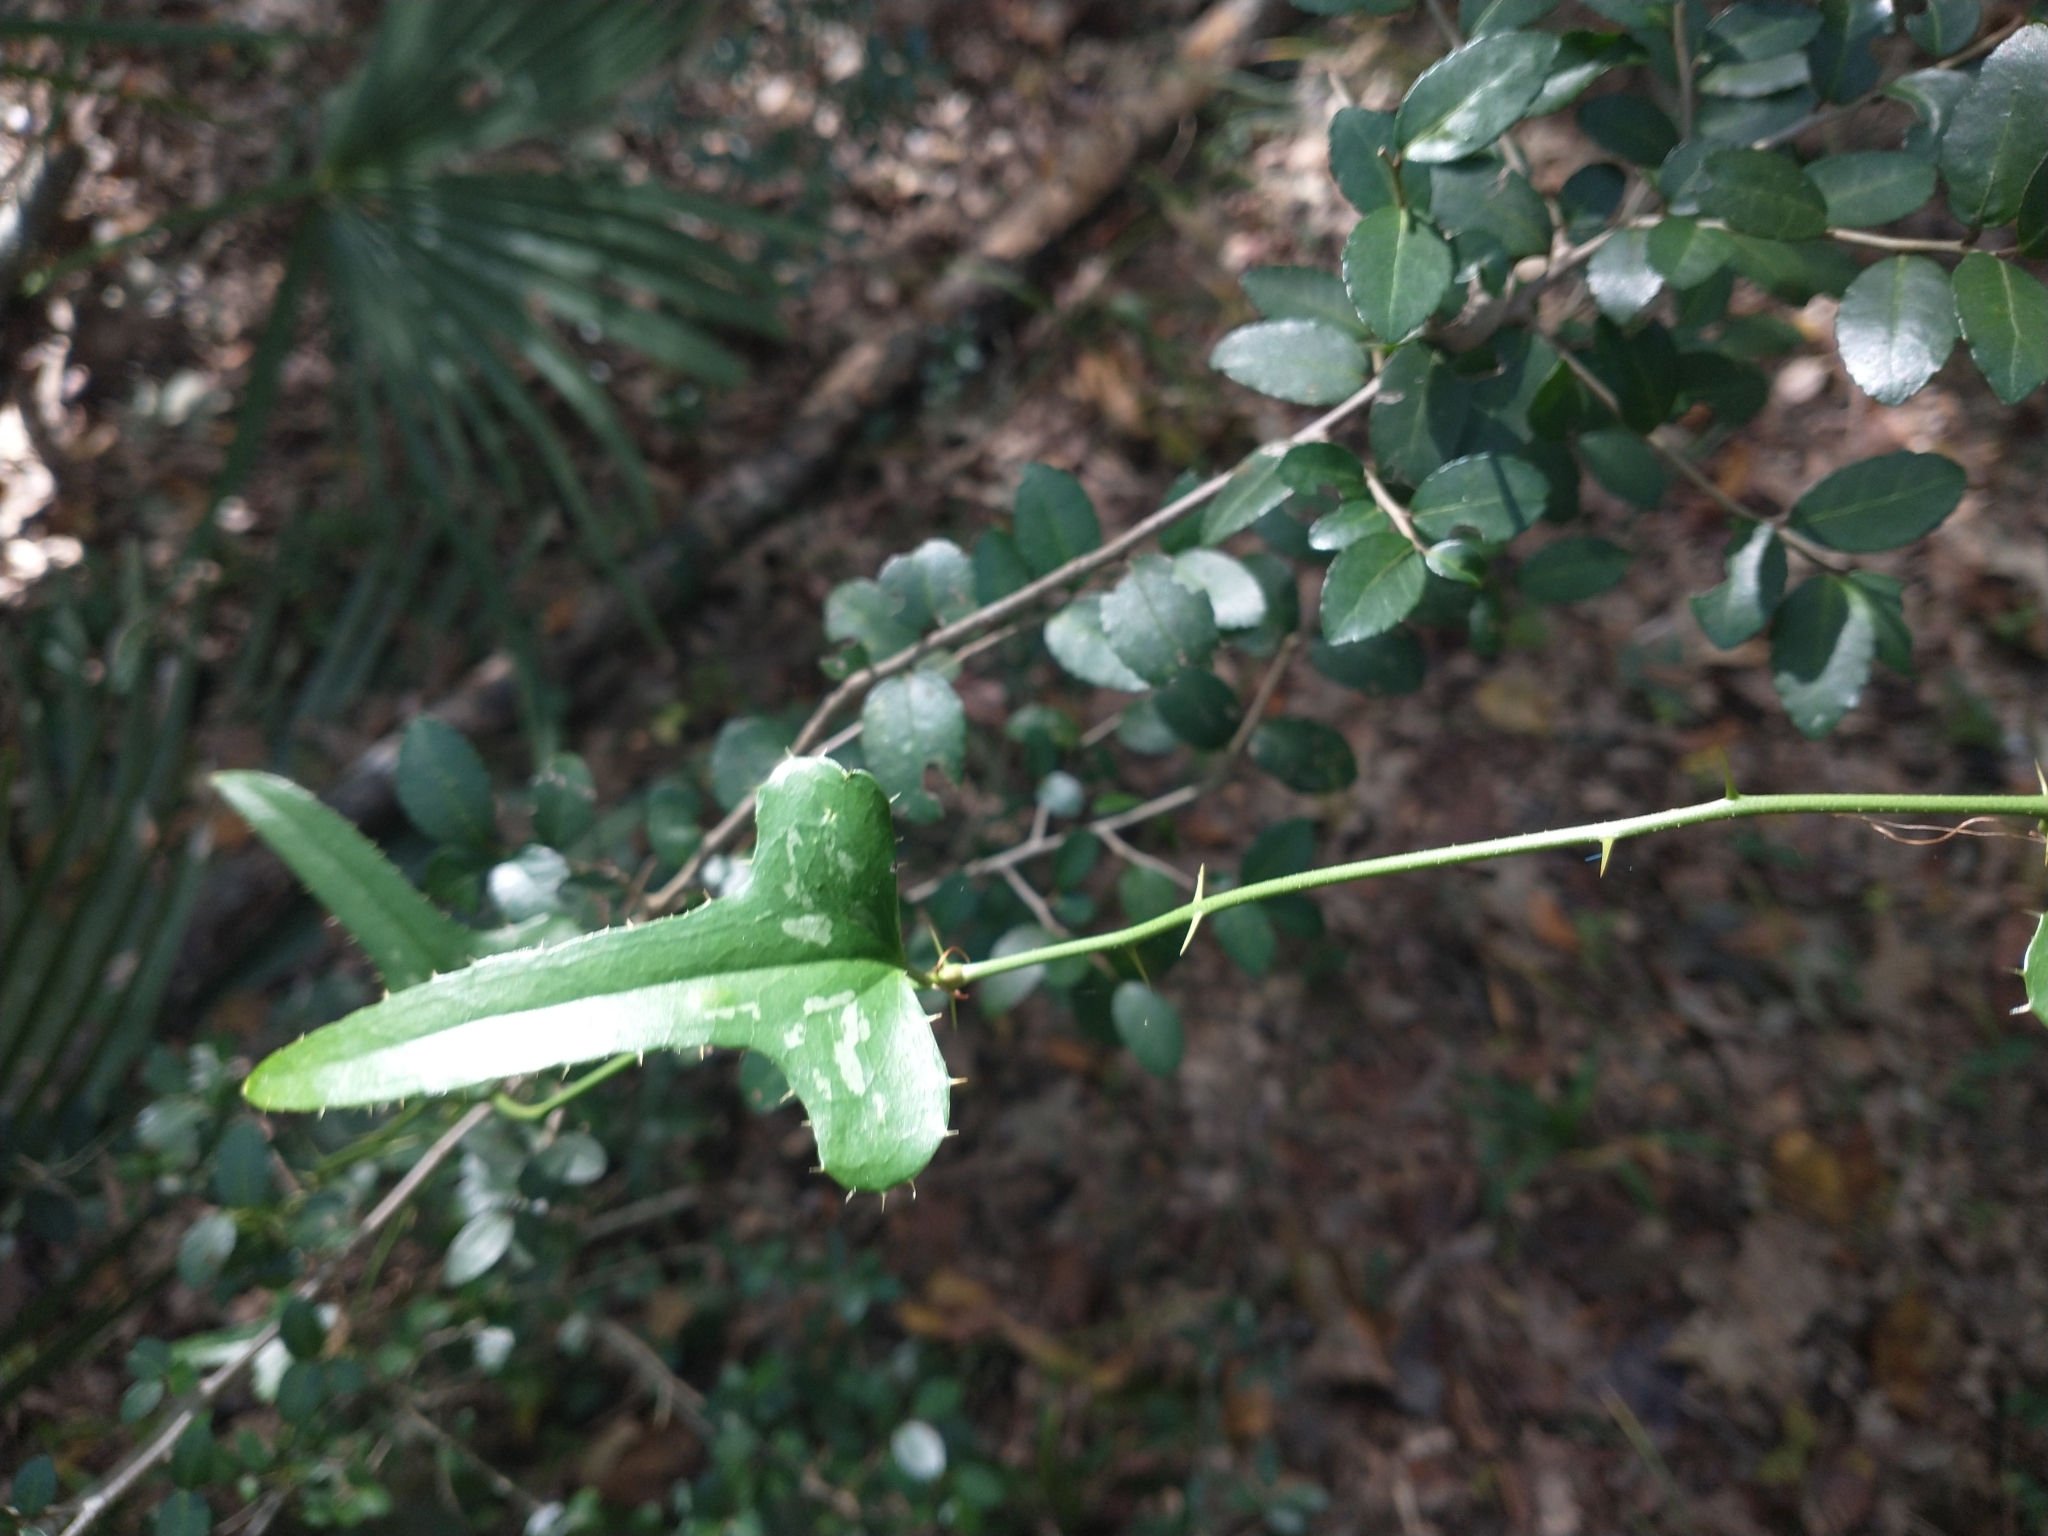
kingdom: Plantae
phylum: Tracheophyta
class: Liliopsida
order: Liliales
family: Smilacaceae
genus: Smilax
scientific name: Smilax bona-nox
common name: Catbrier
